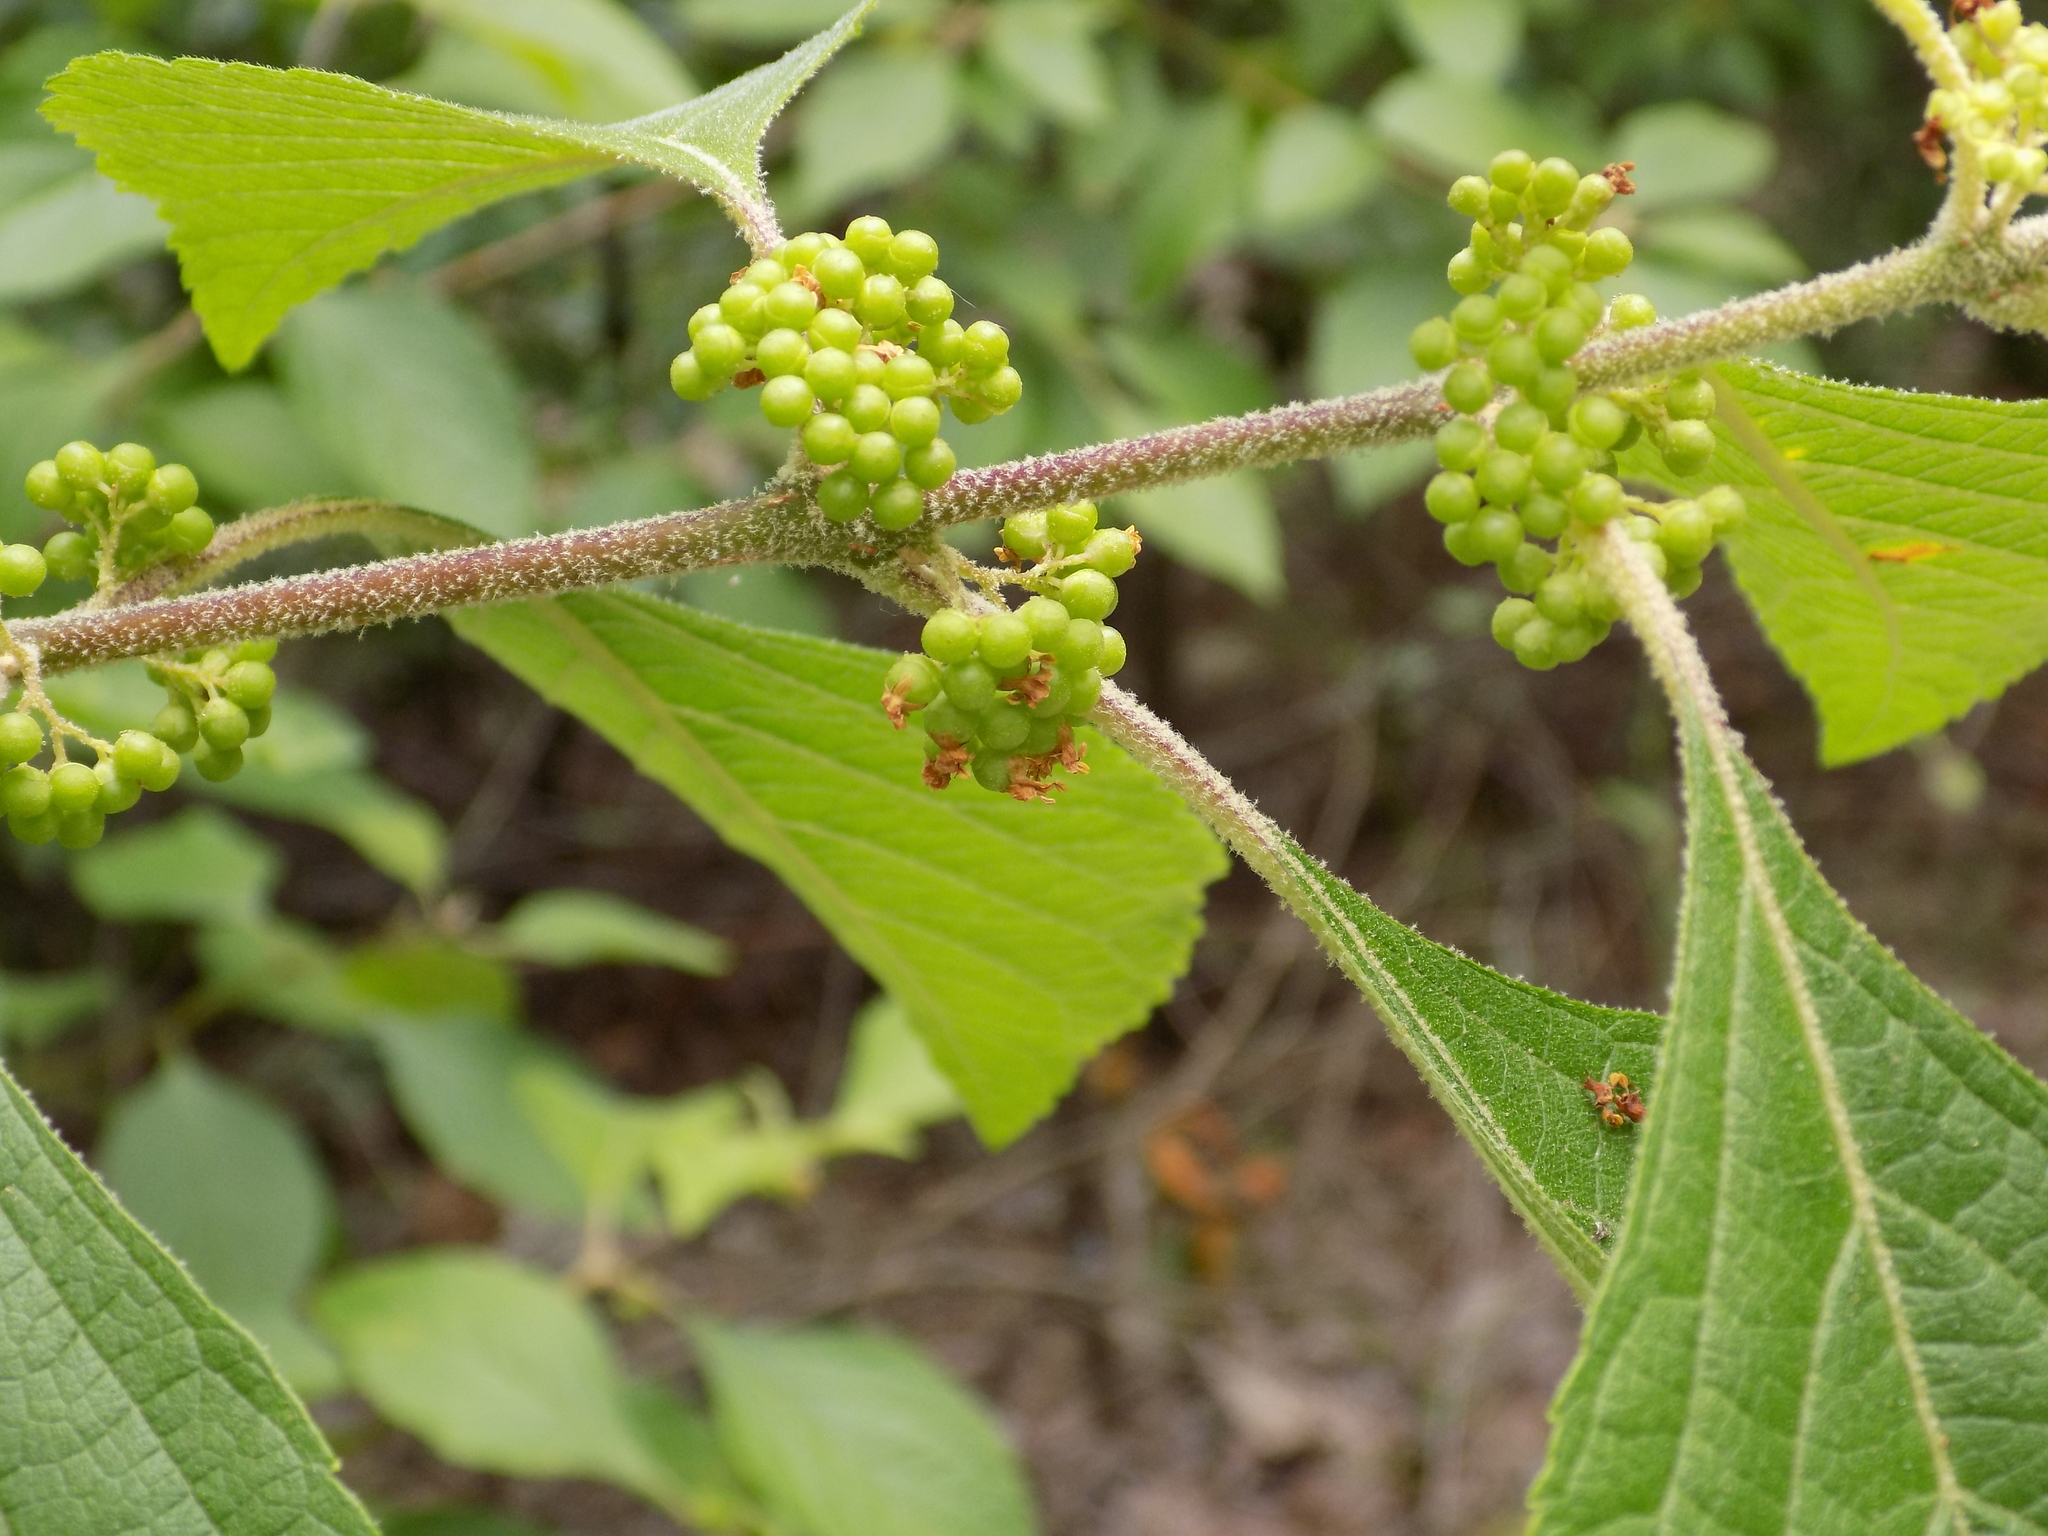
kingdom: Plantae
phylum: Tracheophyta
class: Magnoliopsida
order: Lamiales
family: Lamiaceae
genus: Callicarpa
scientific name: Callicarpa americana
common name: American beautyberry
